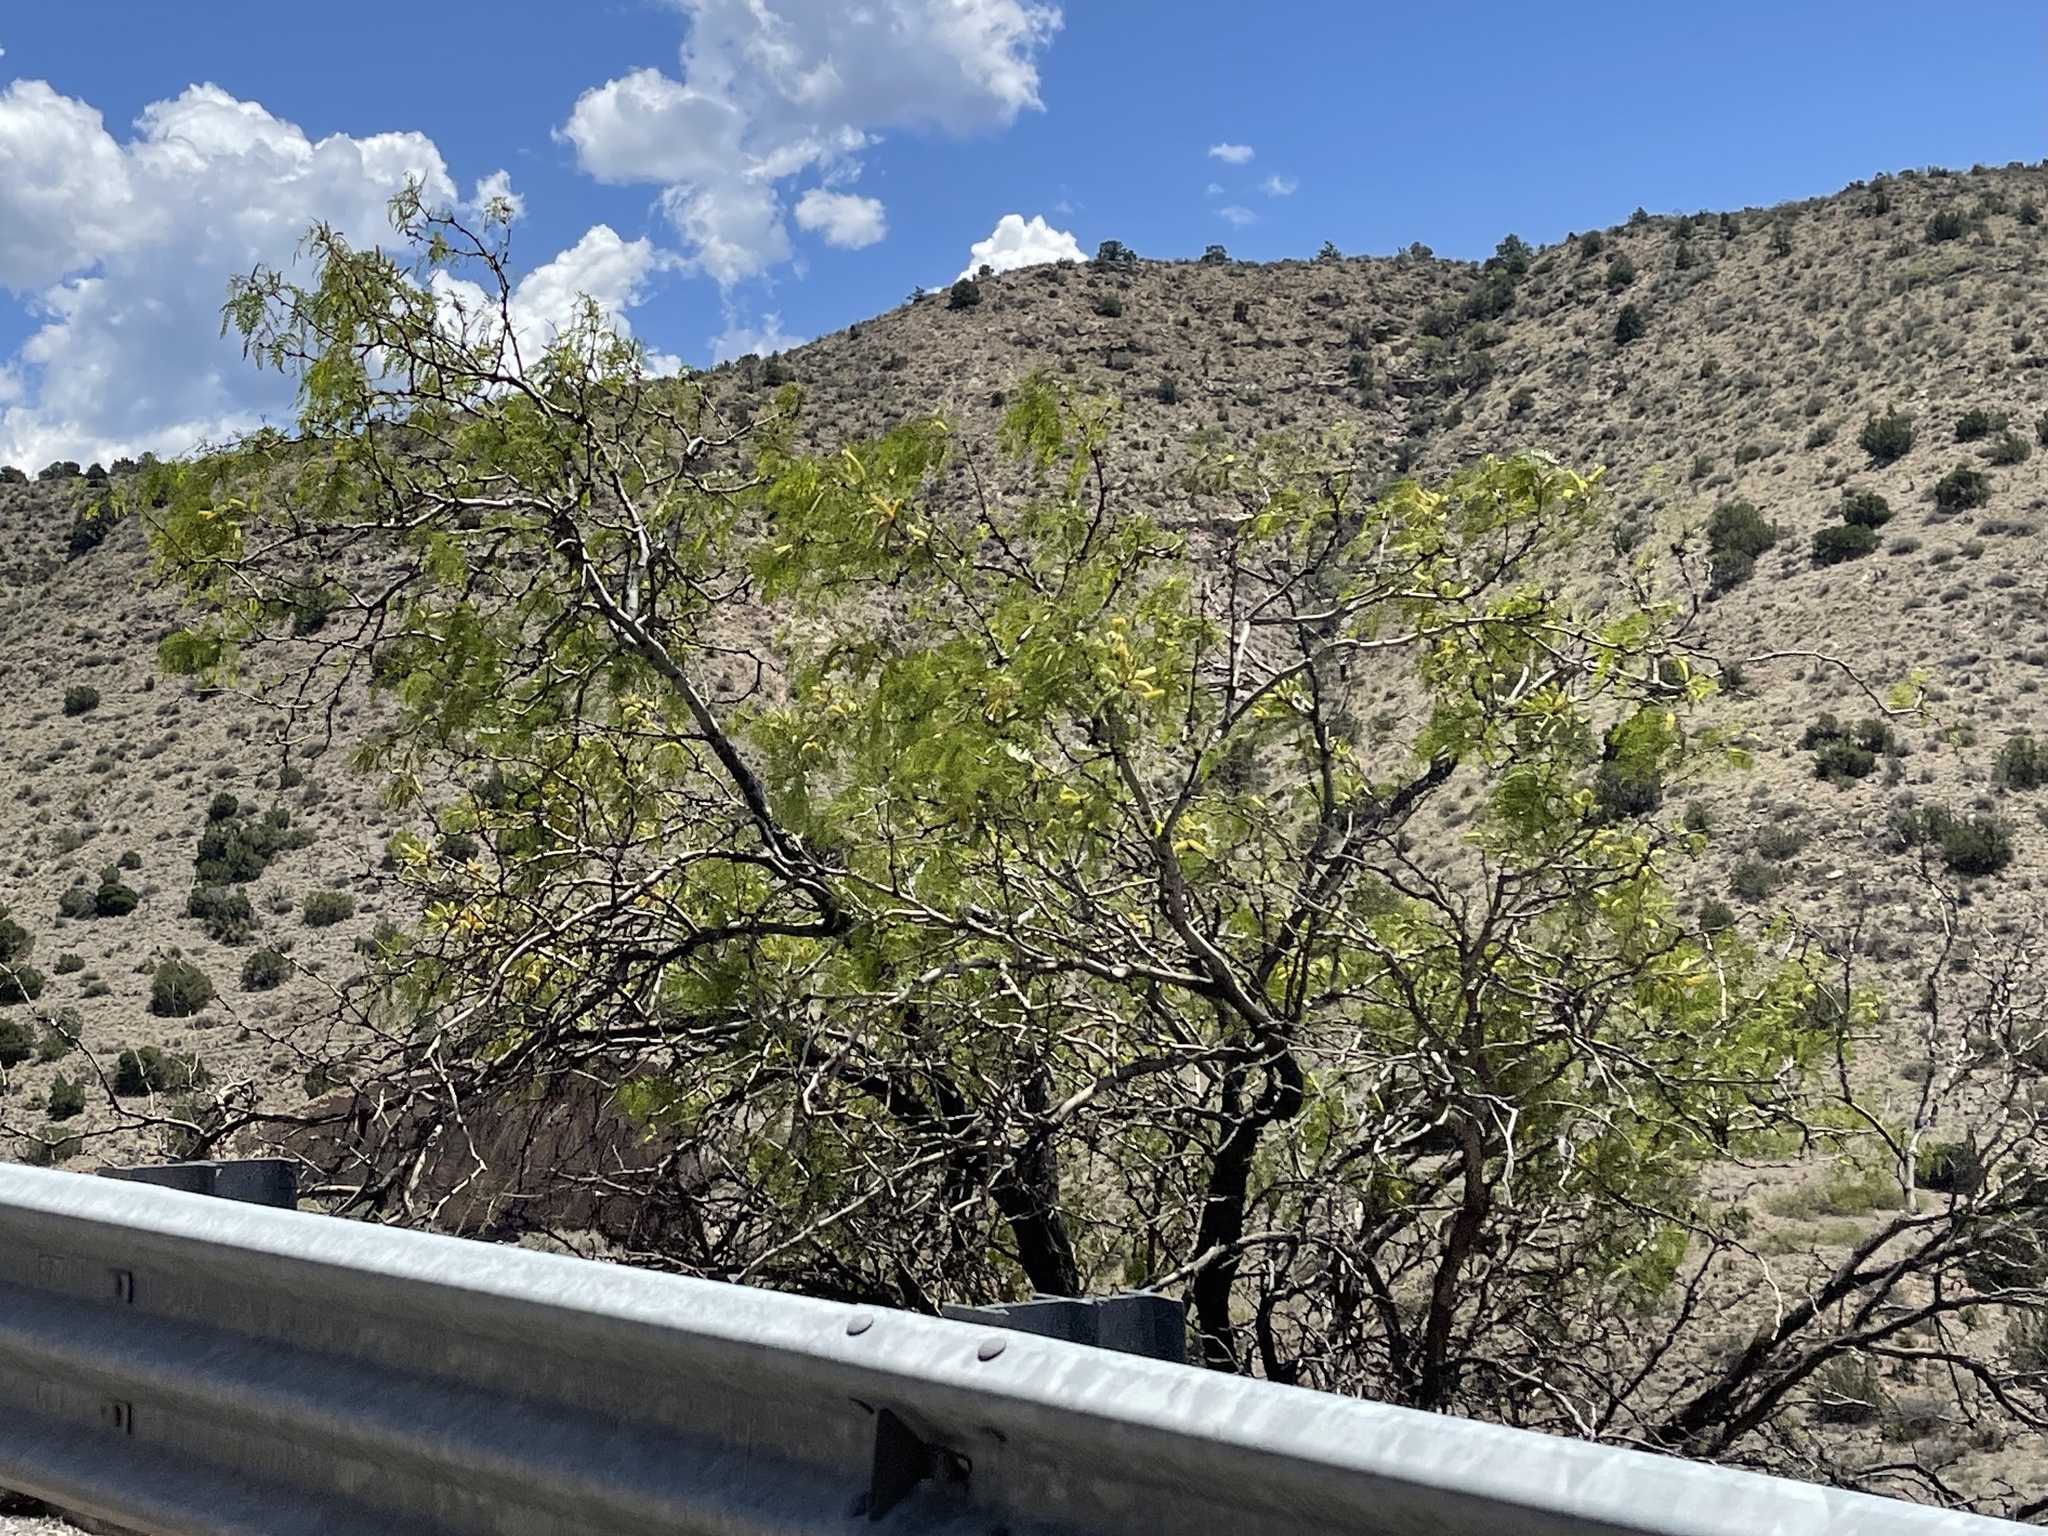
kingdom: Plantae
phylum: Tracheophyta
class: Magnoliopsida
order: Fabales
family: Fabaceae
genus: Prosopis
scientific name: Prosopis glandulosa
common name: Honey mesquite
